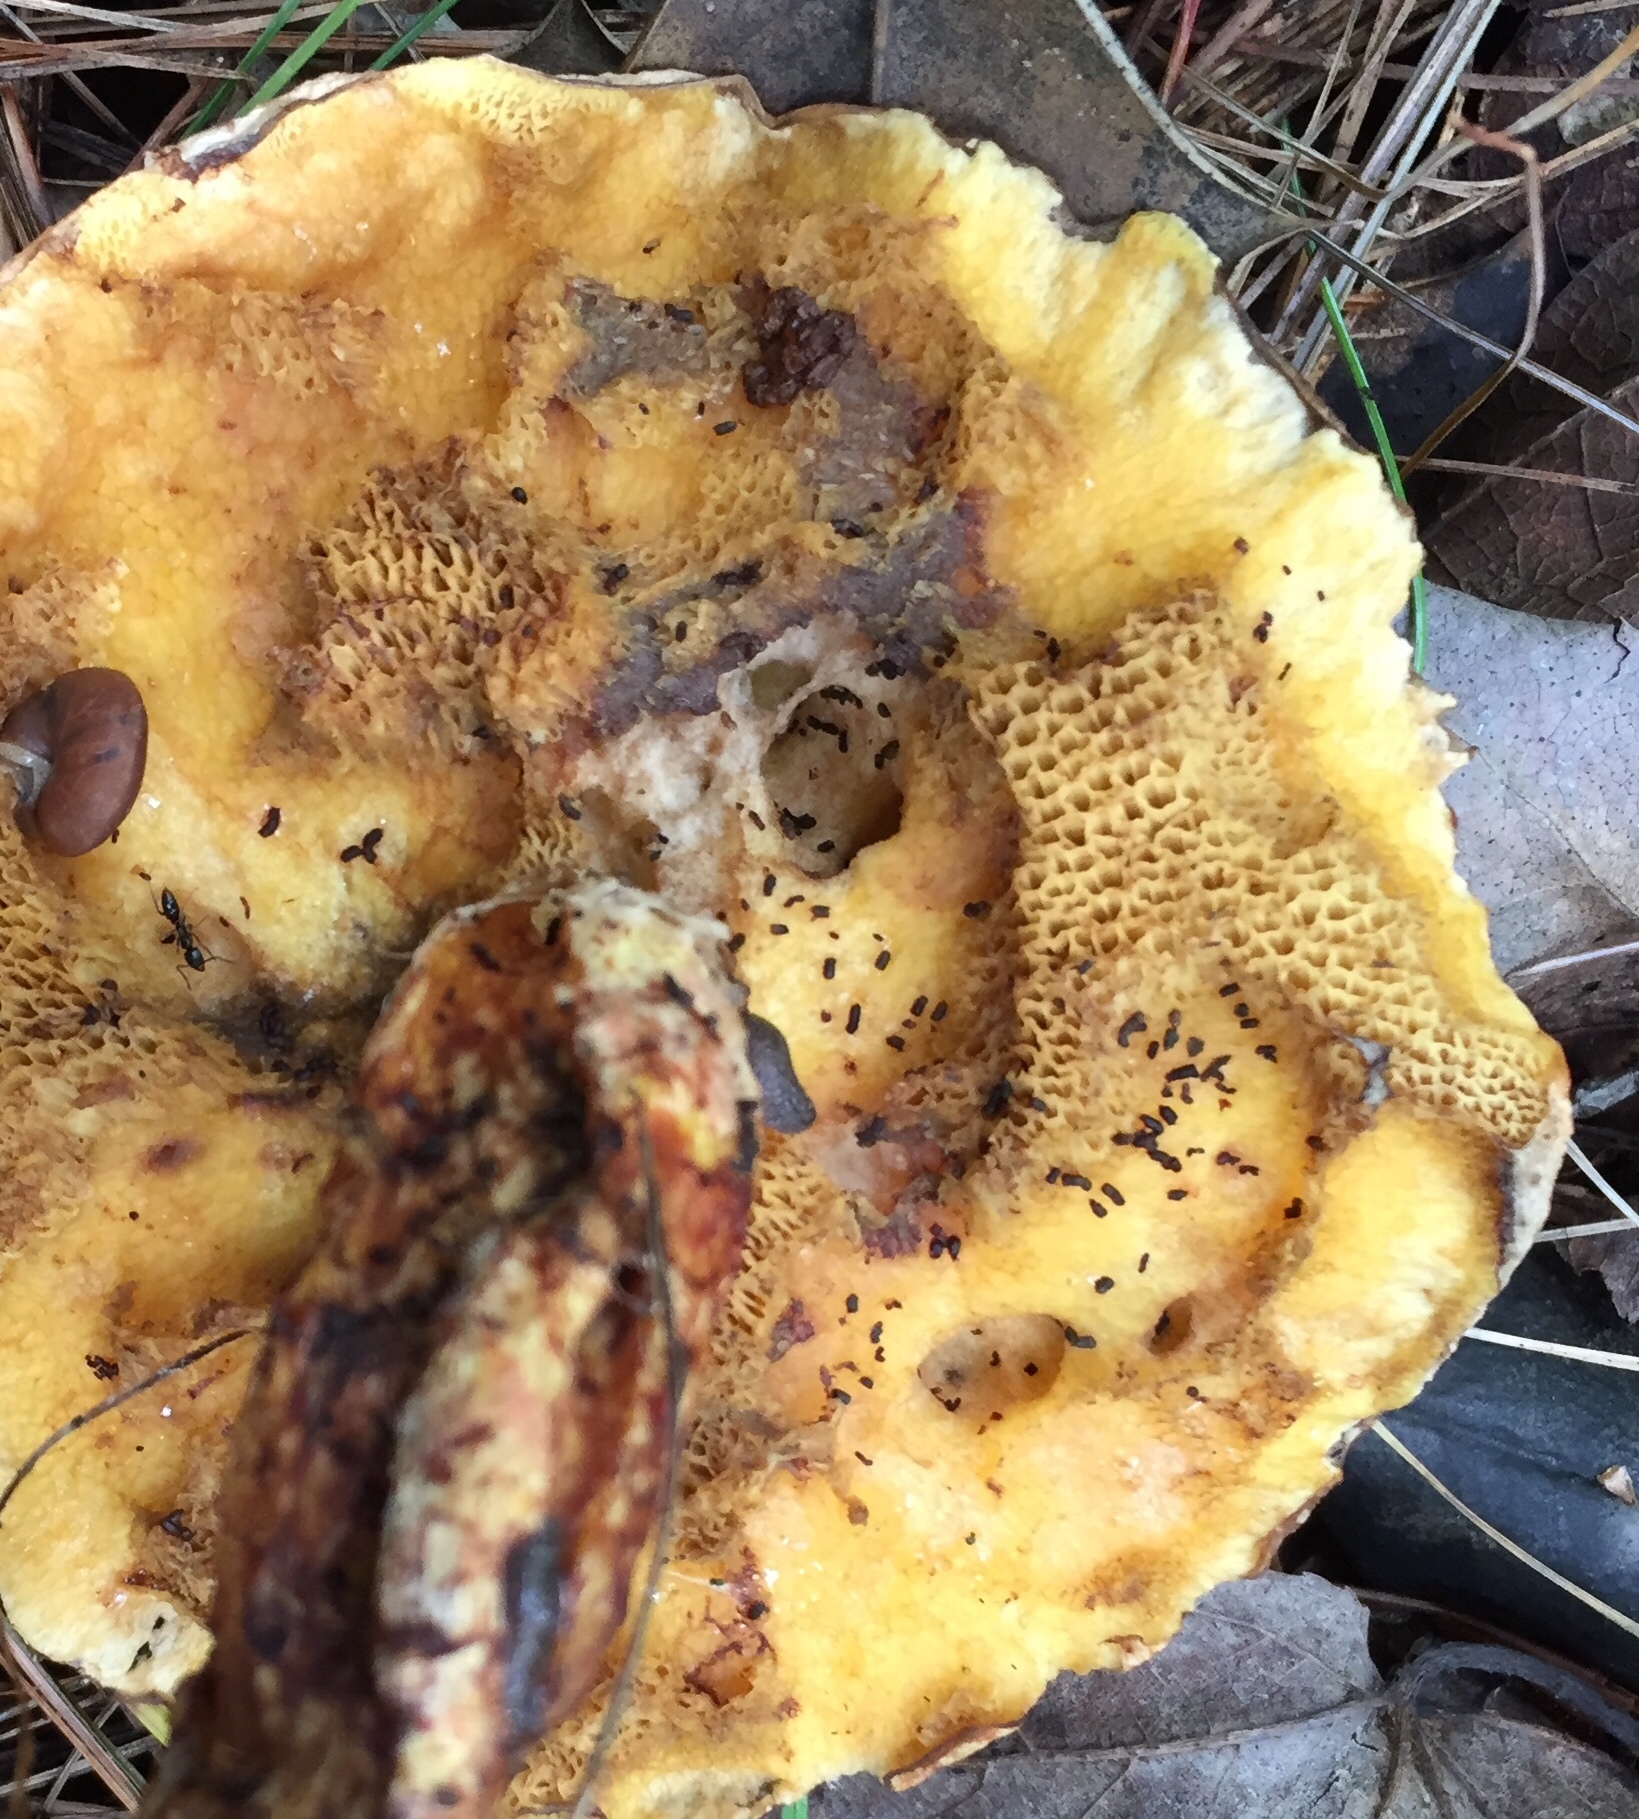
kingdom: Fungi
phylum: Basidiomycota
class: Agaricomycetes
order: Boletales
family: Suillaceae
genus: Suillus
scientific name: Suillus spraguei
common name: Painted suillus
